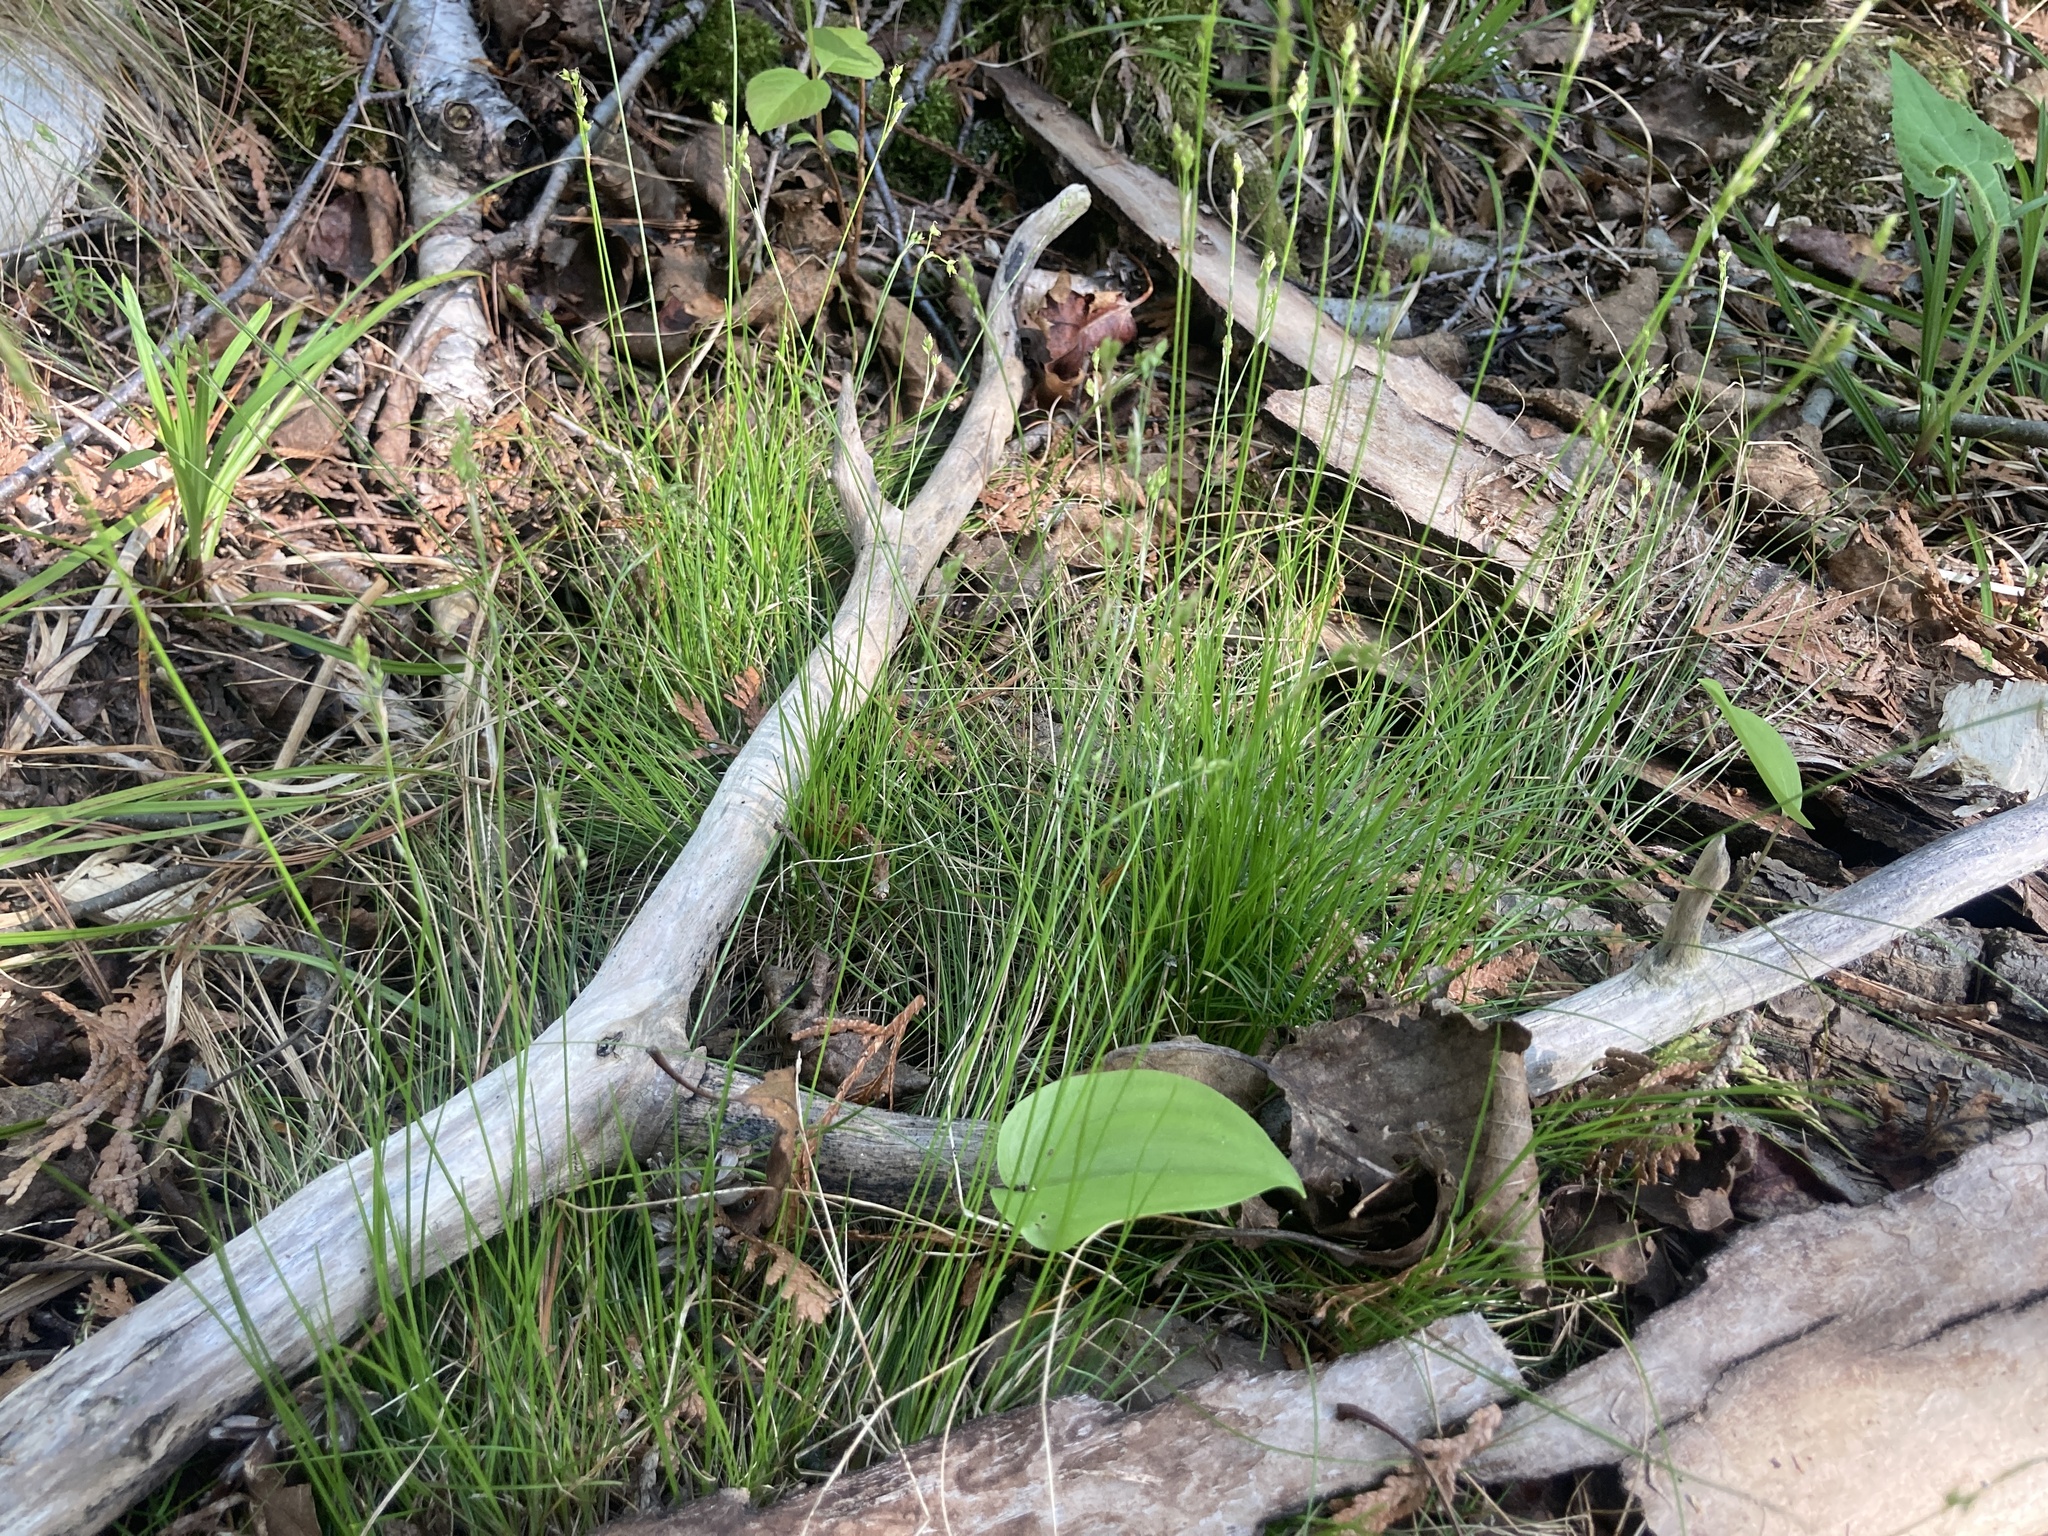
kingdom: Plantae
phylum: Tracheophyta
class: Liliopsida
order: Poales
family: Cyperaceae
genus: Carex
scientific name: Carex eburnea
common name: Bristle-leaved sedge
